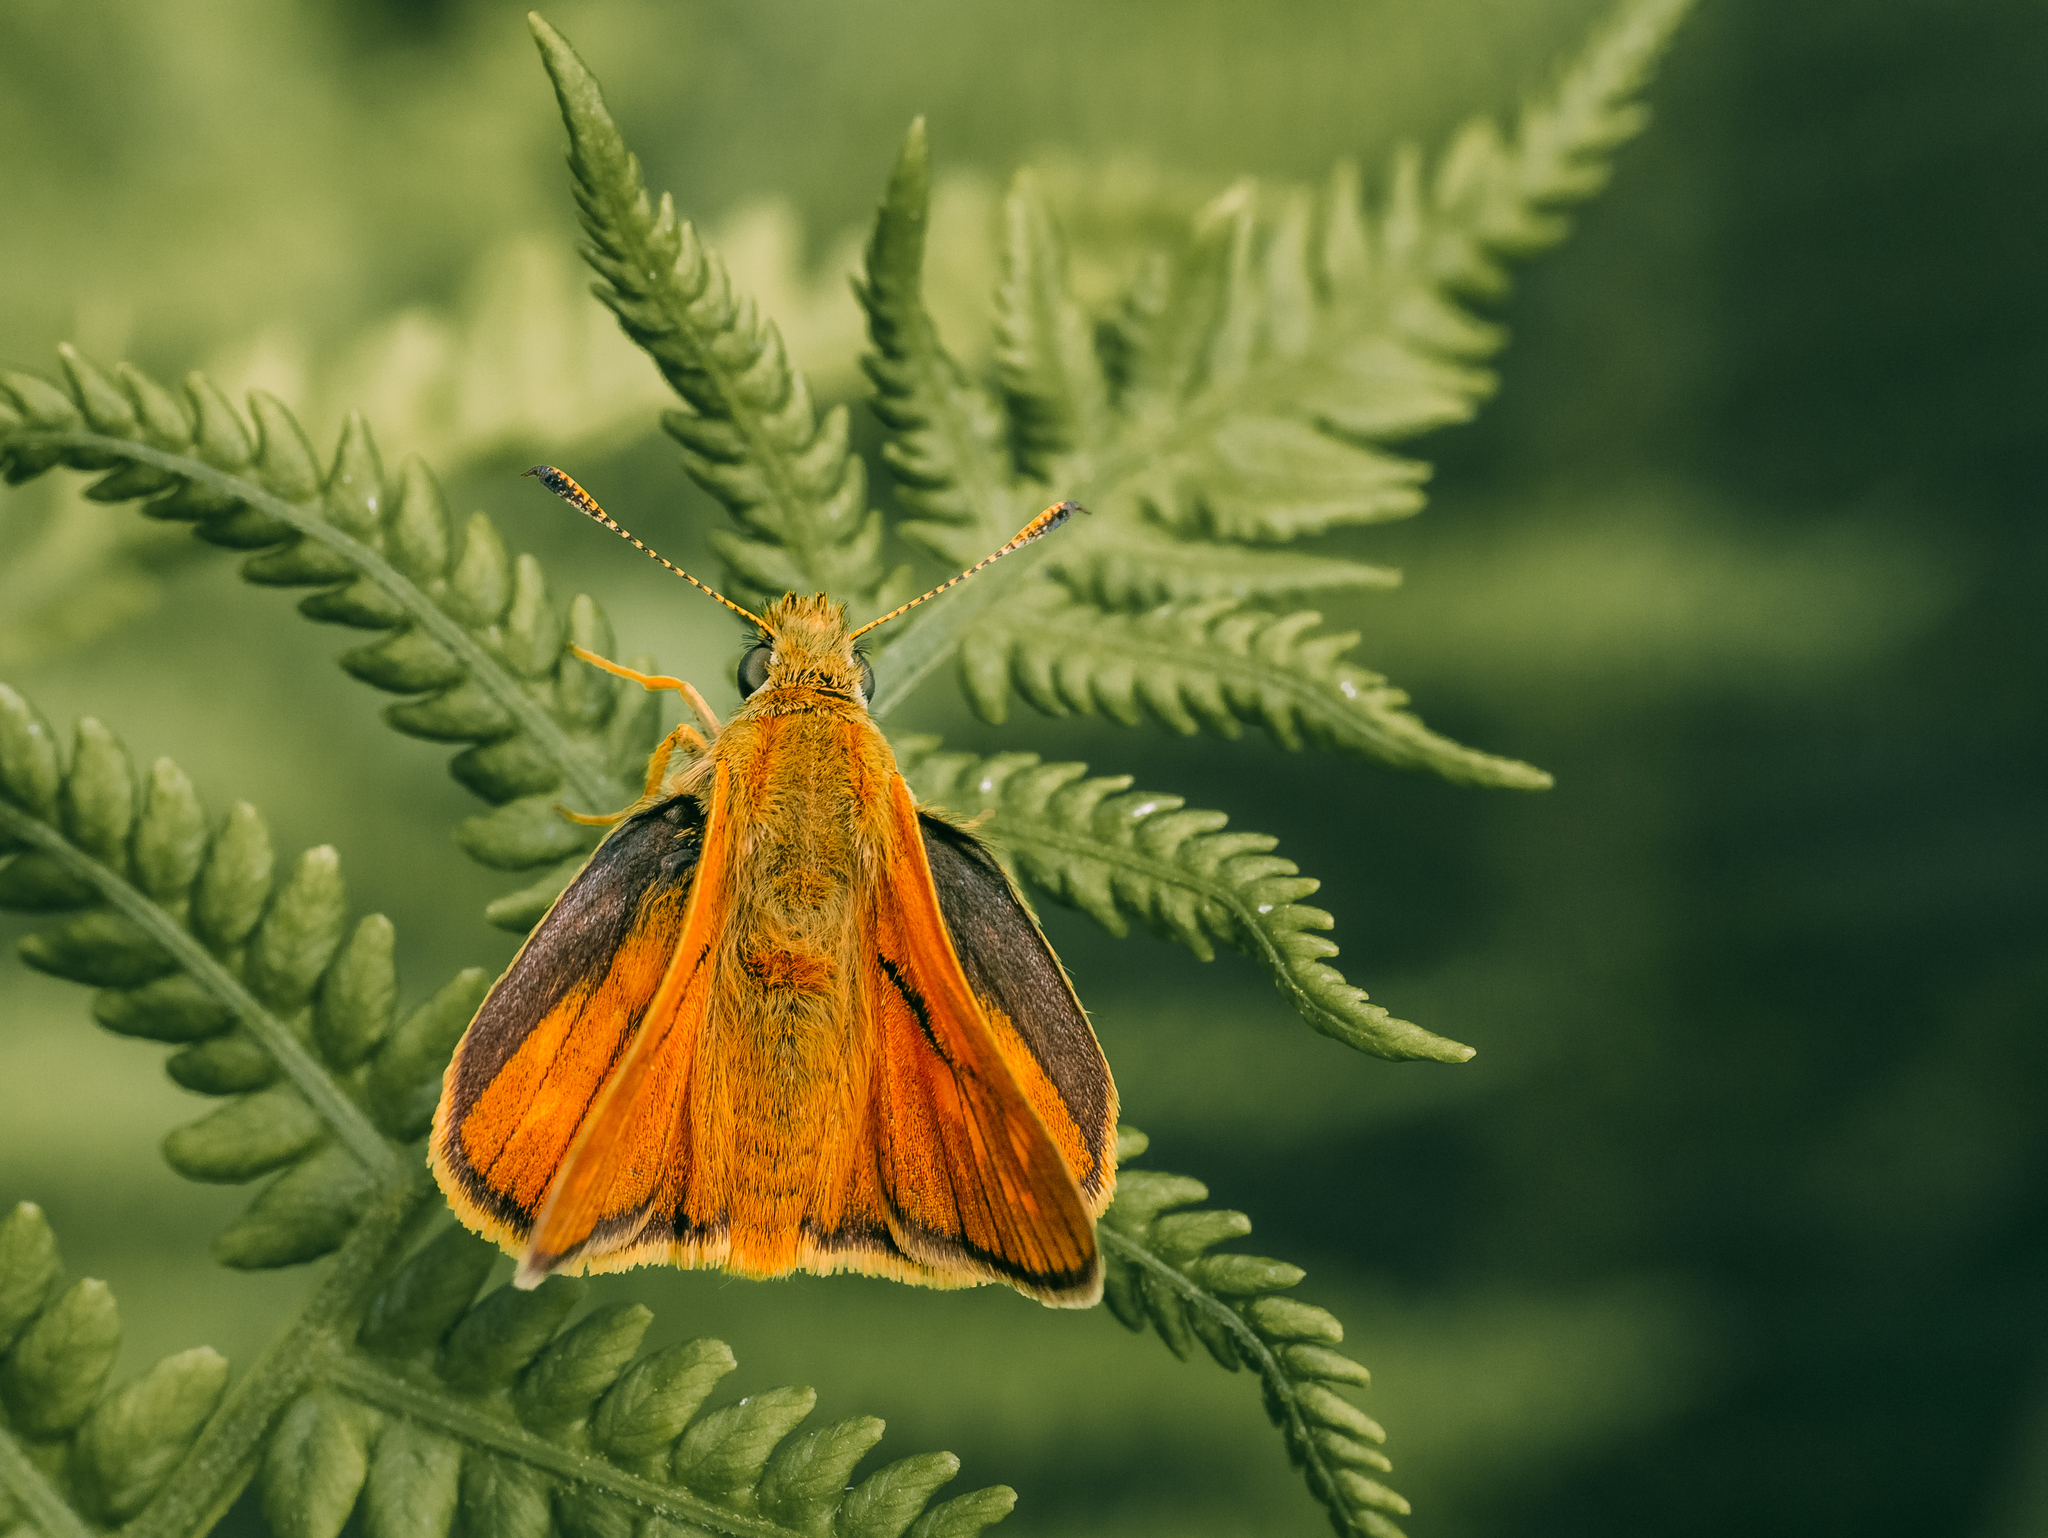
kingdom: Animalia
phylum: Arthropoda
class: Insecta
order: Lepidoptera
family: Hesperiidae
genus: Ochlodes
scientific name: Ochlodes venata
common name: Large skipper
